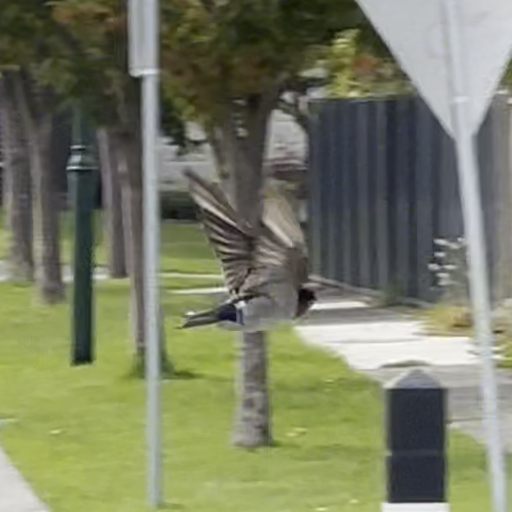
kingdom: Animalia
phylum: Chordata
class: Aves
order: Passeriformes
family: Hirundinidae
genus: Hirundo
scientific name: Hirundo neoxena
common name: Welcome swallow
